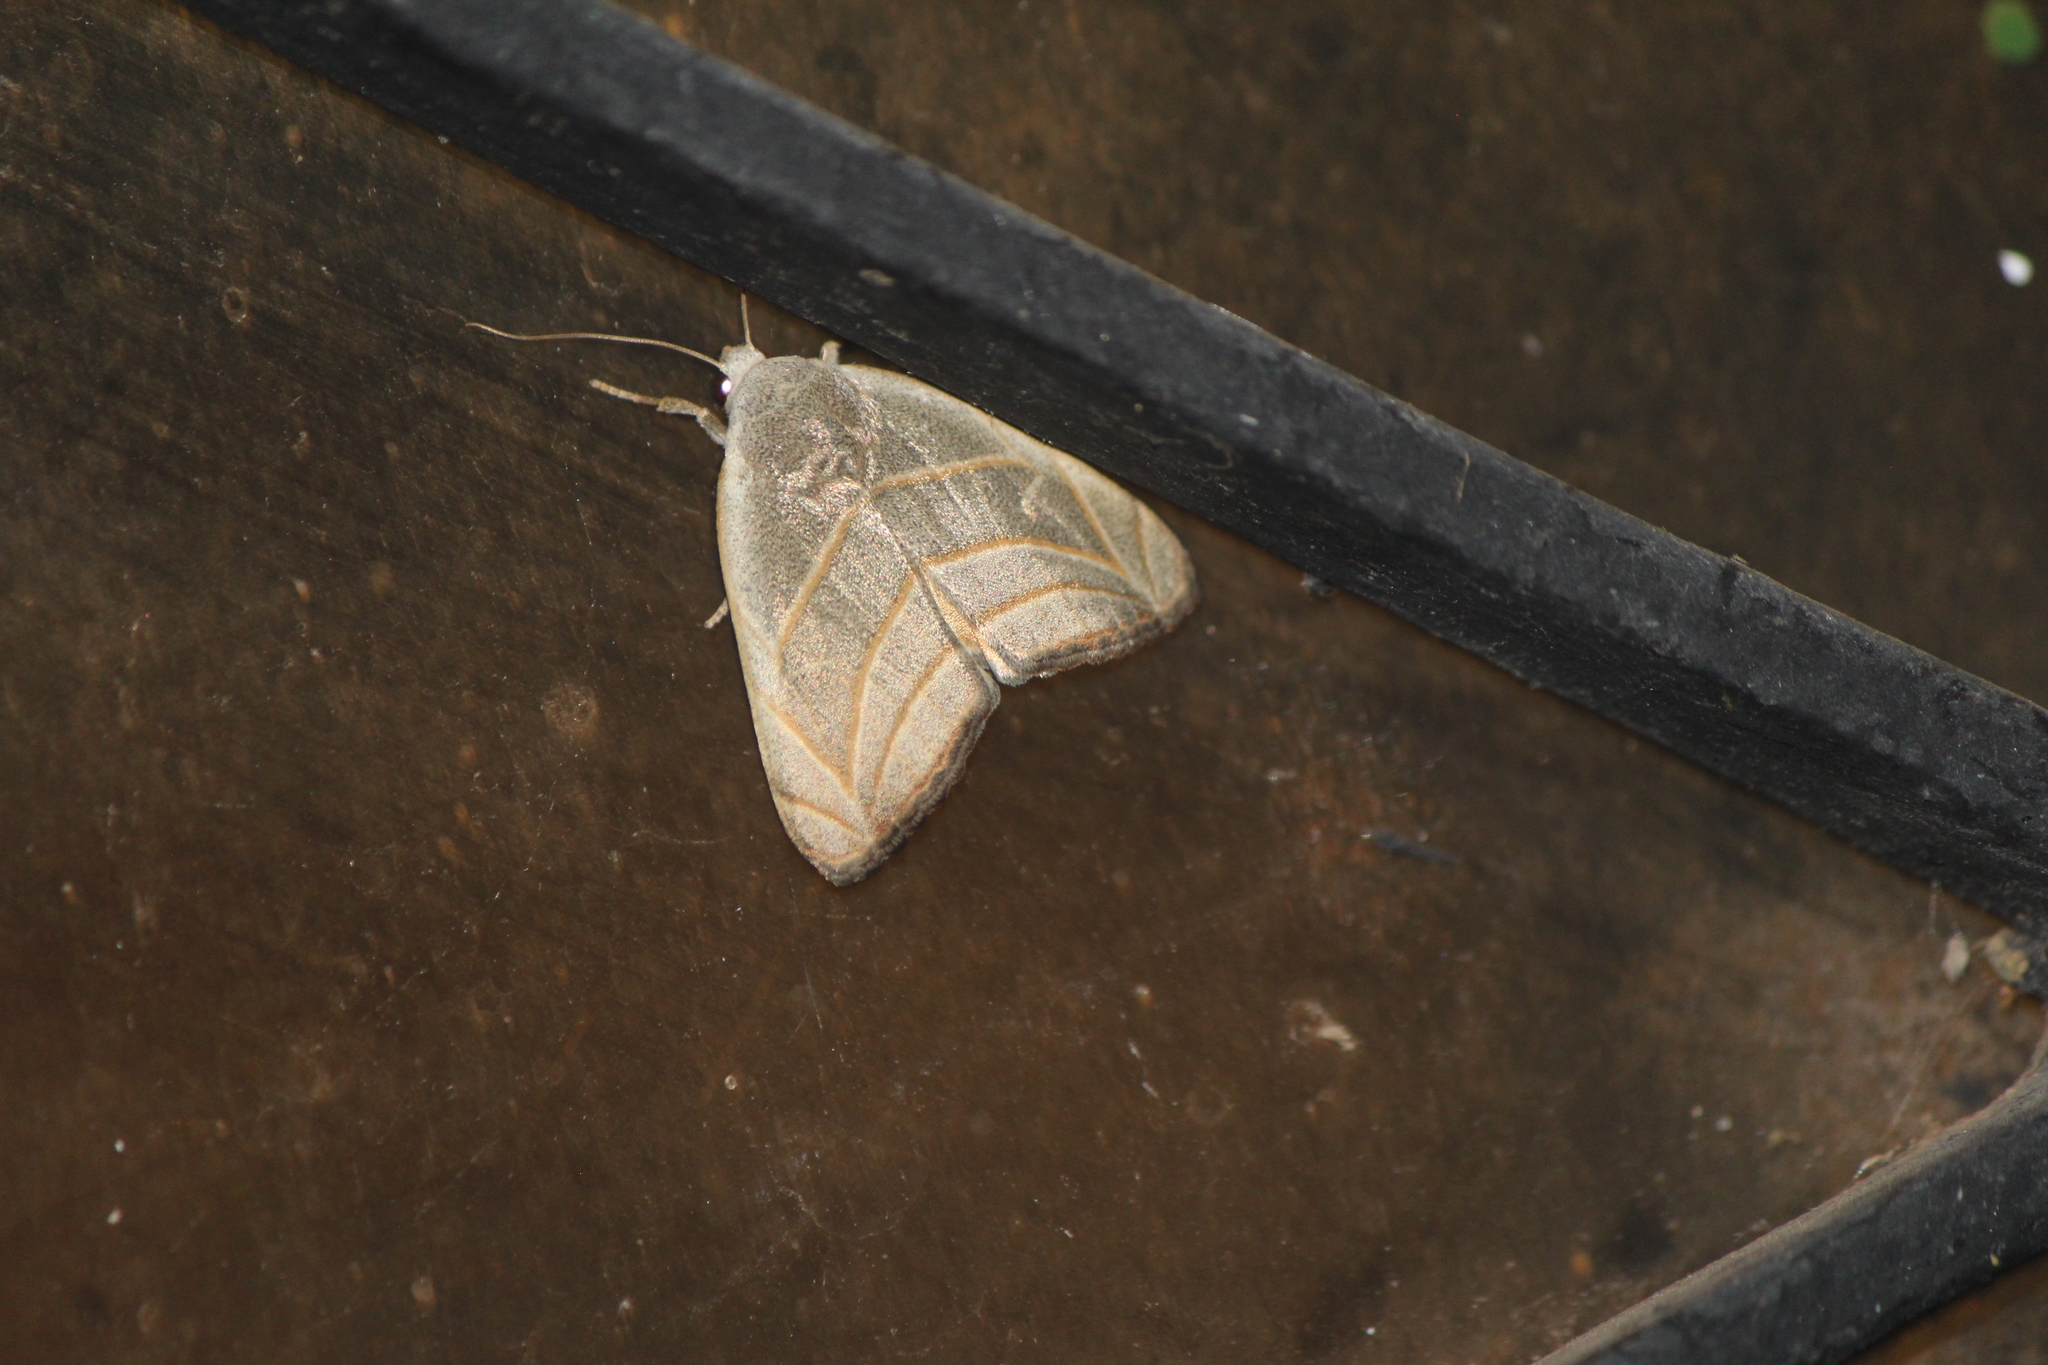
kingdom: Animalia
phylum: Arthropoda
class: Insecta
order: Lepidoptera
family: Noctuidae
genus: Bagisara
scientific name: Bagisara laverna
